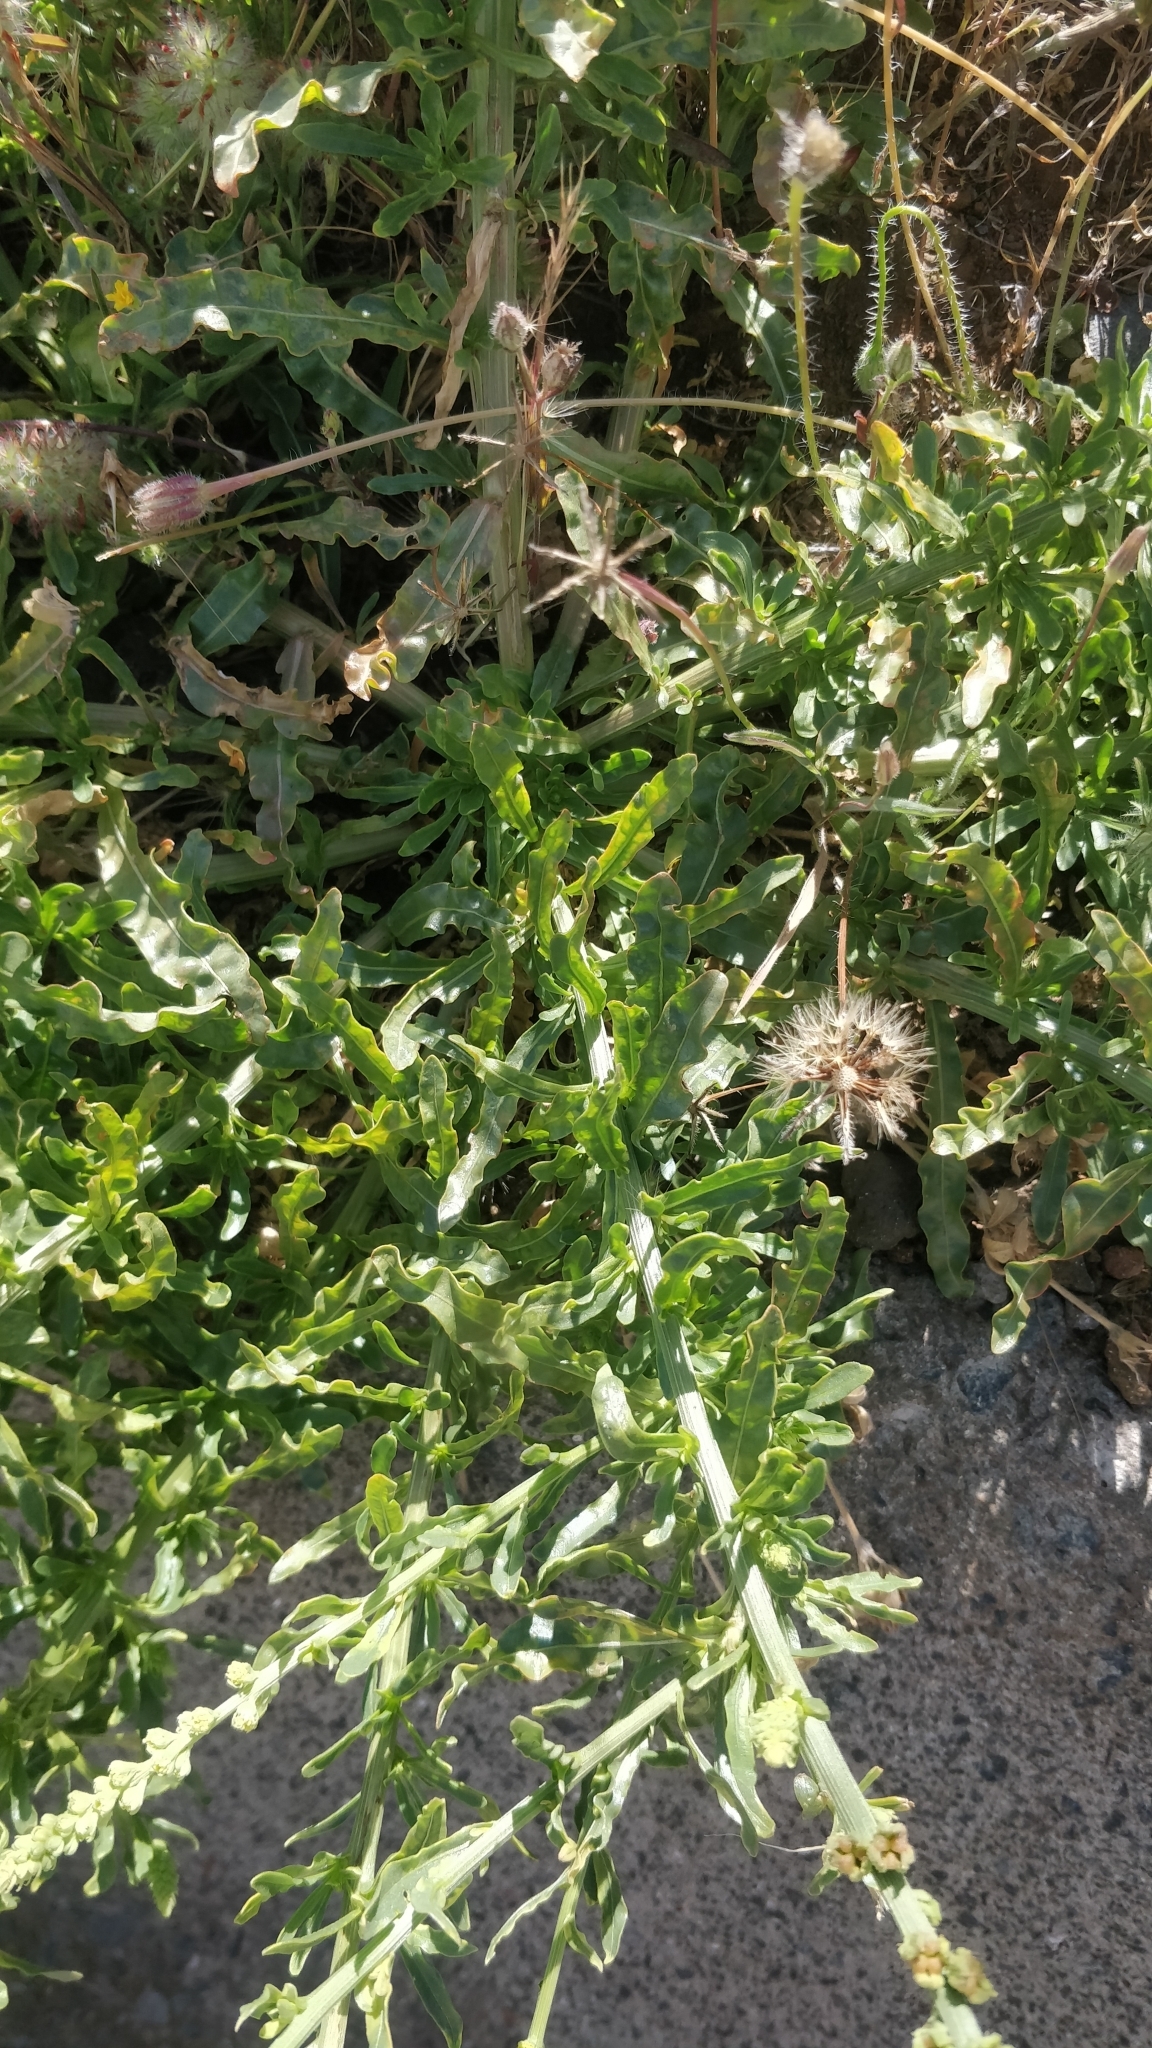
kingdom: Plantae
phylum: Tracheophyta
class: Magnoliopsida
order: Brassicales
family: Resedaceae
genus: Reseda
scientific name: Reseda luteola
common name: Weld
